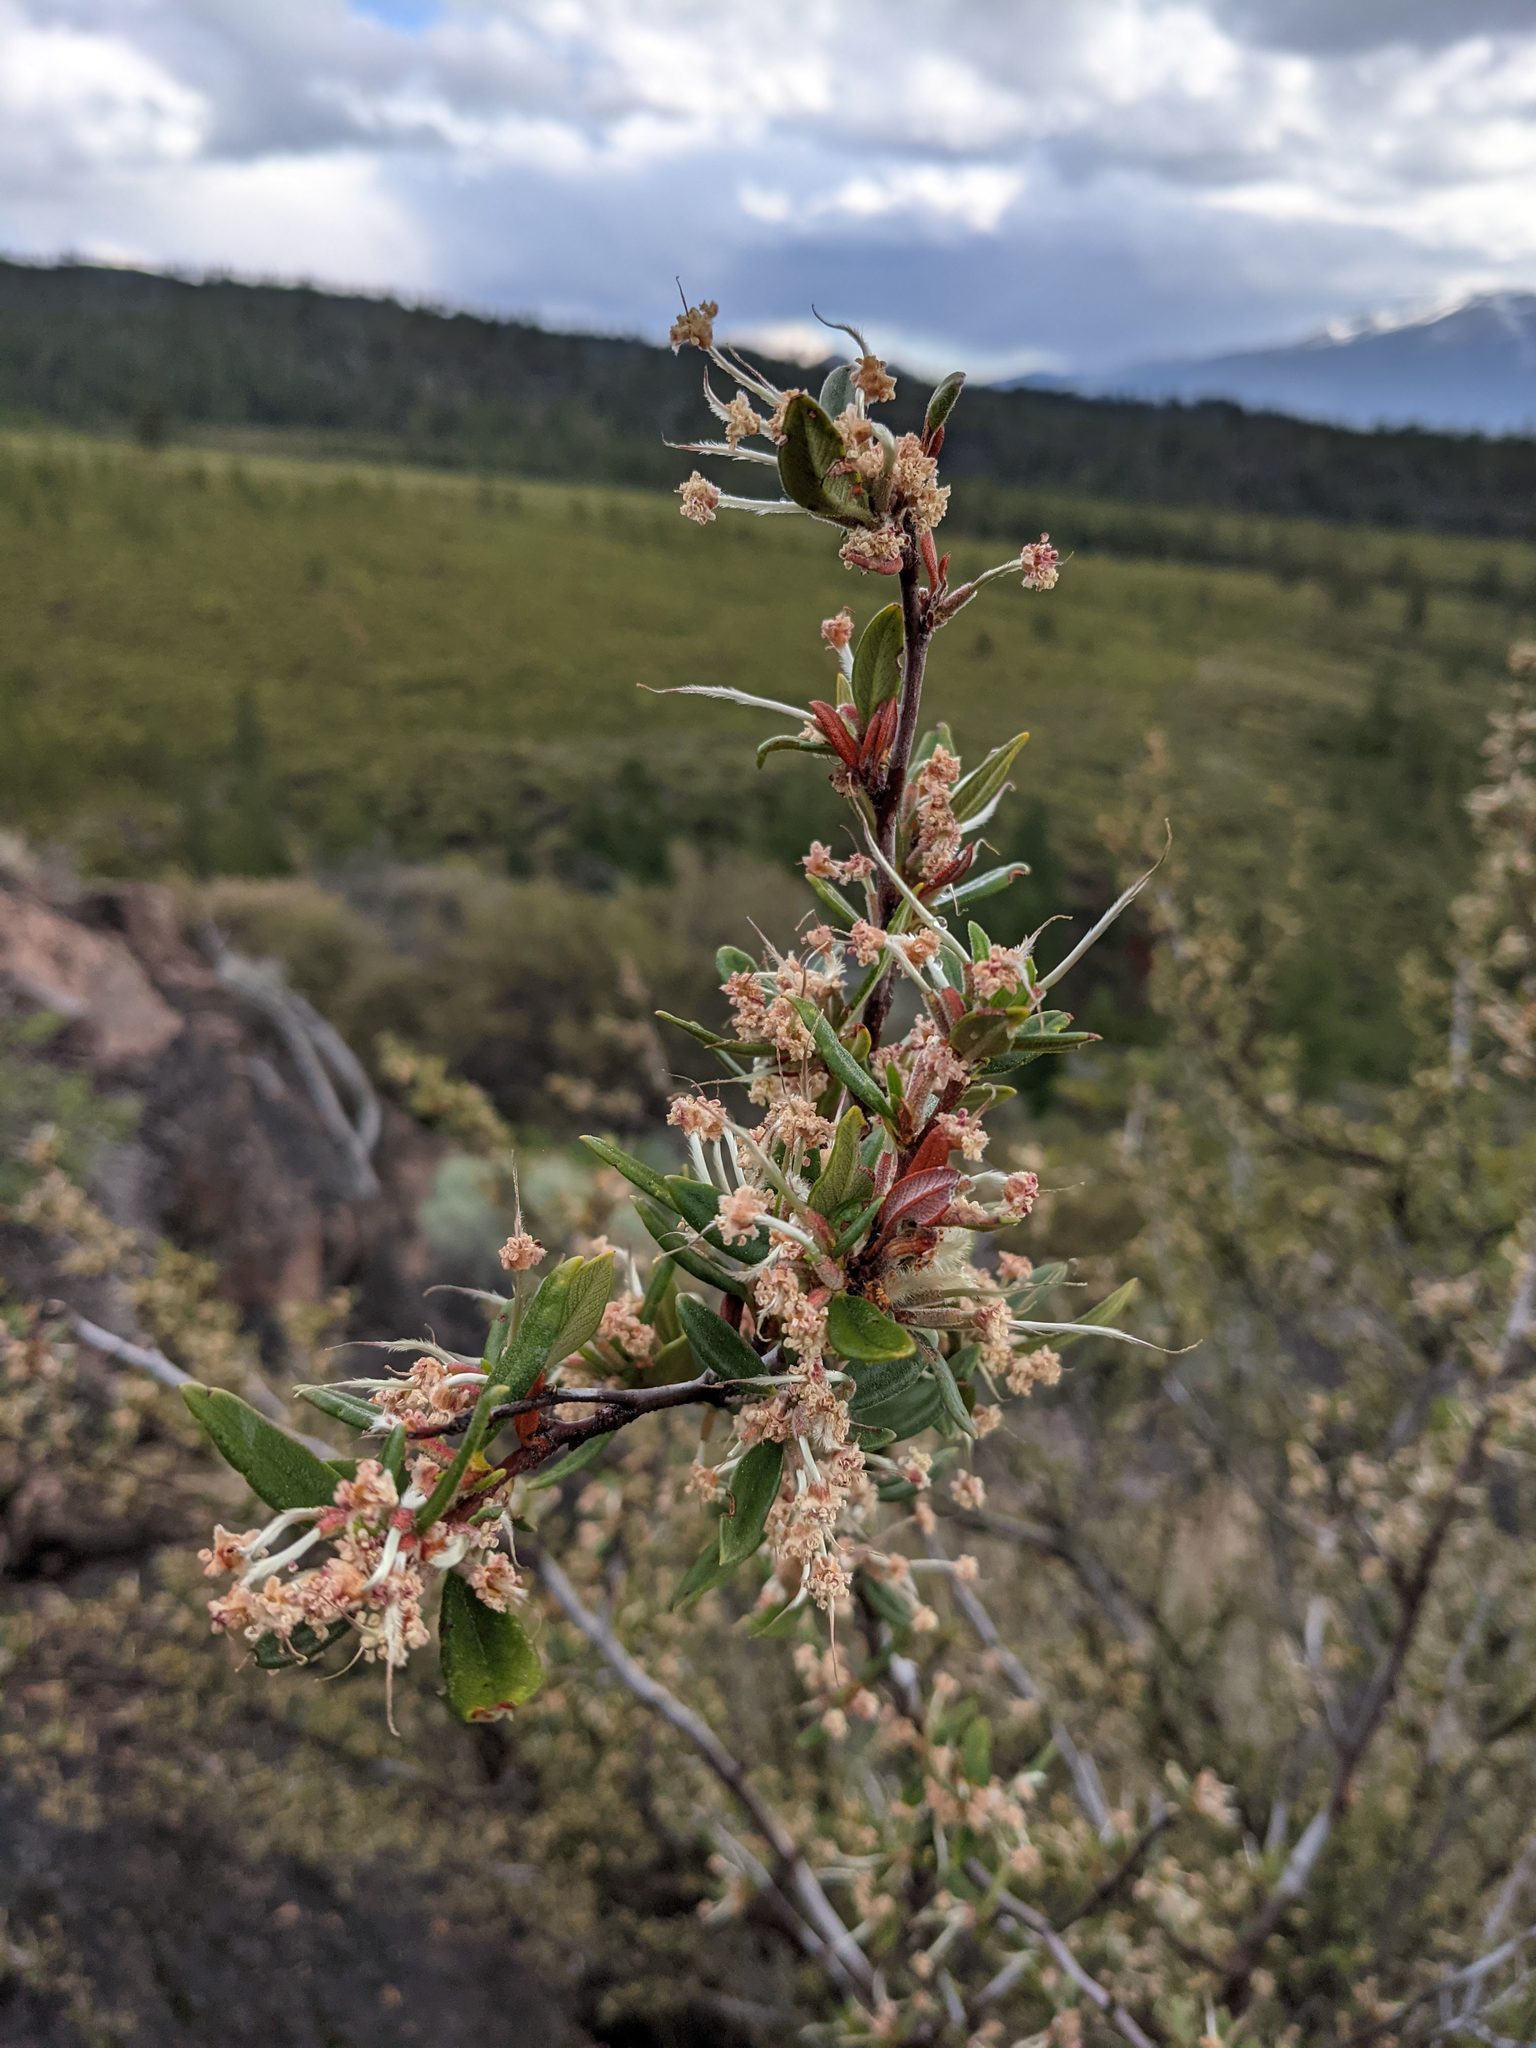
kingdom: Plantae
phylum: Tracheophyta
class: Magnoliopsida
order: Rosales
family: Rosaceae
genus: Cercocarpus
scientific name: Cercocarpus ledifolius
